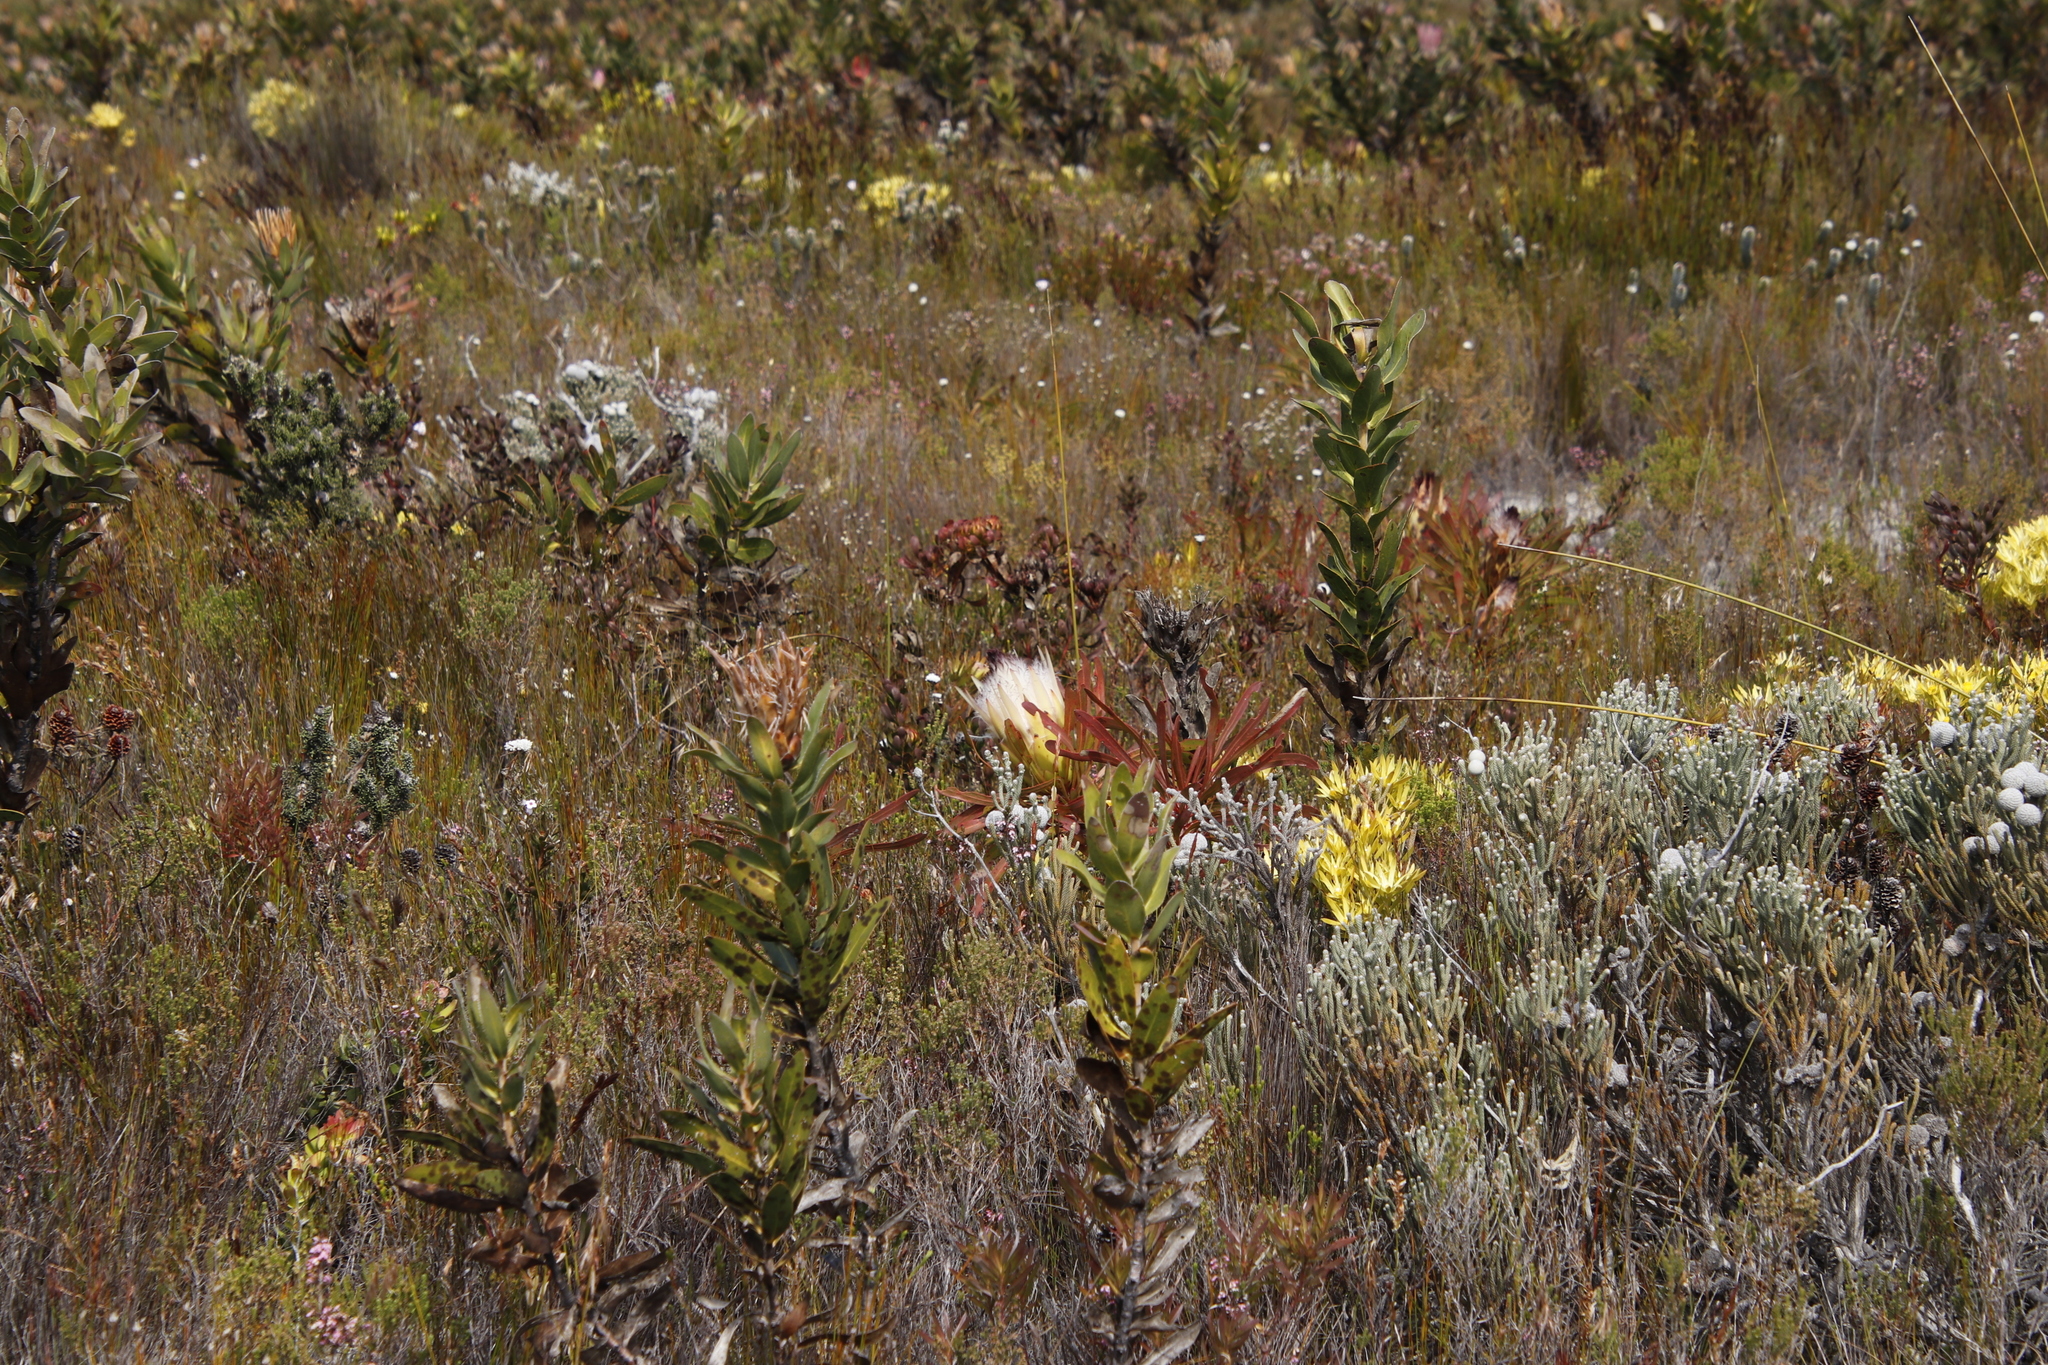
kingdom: Plantae
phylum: Tracheophyta
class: Magnoliopsida
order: Proteales
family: Proteaceae
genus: Protea
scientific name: Protea longifolia
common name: Long-leaf sugarbush
